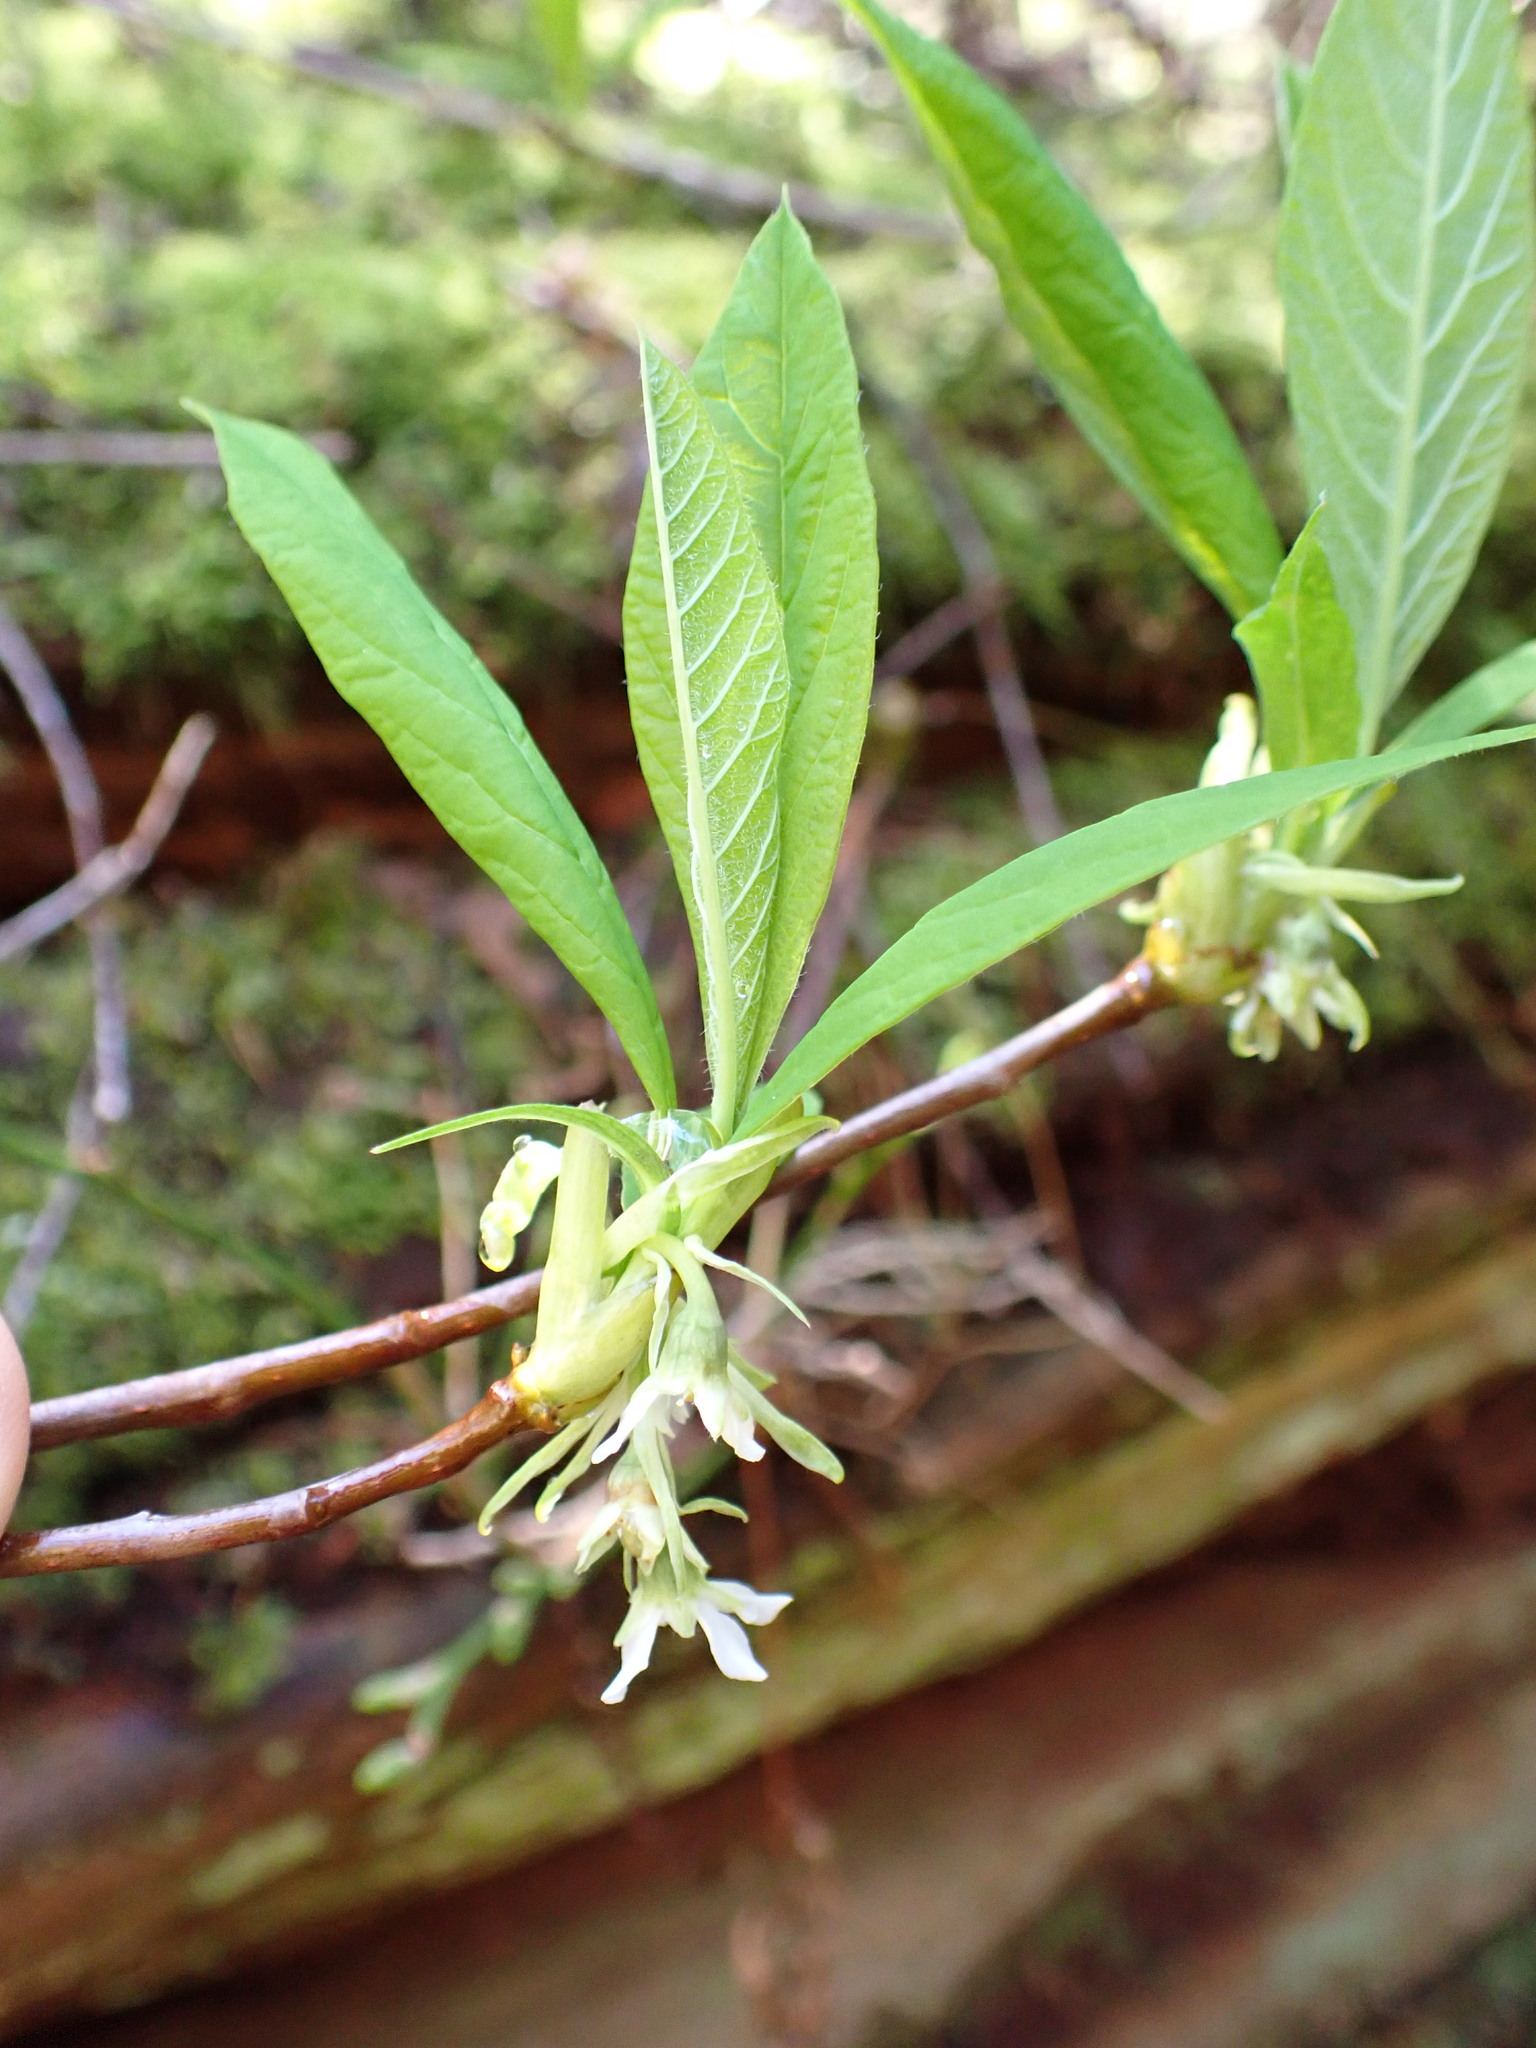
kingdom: Plantae
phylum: Tracheophyta
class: Magnoliopsida
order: Rosales
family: Rosaceae
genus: Oemleria
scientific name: Oemleria cerasiformis
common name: Osoberry
